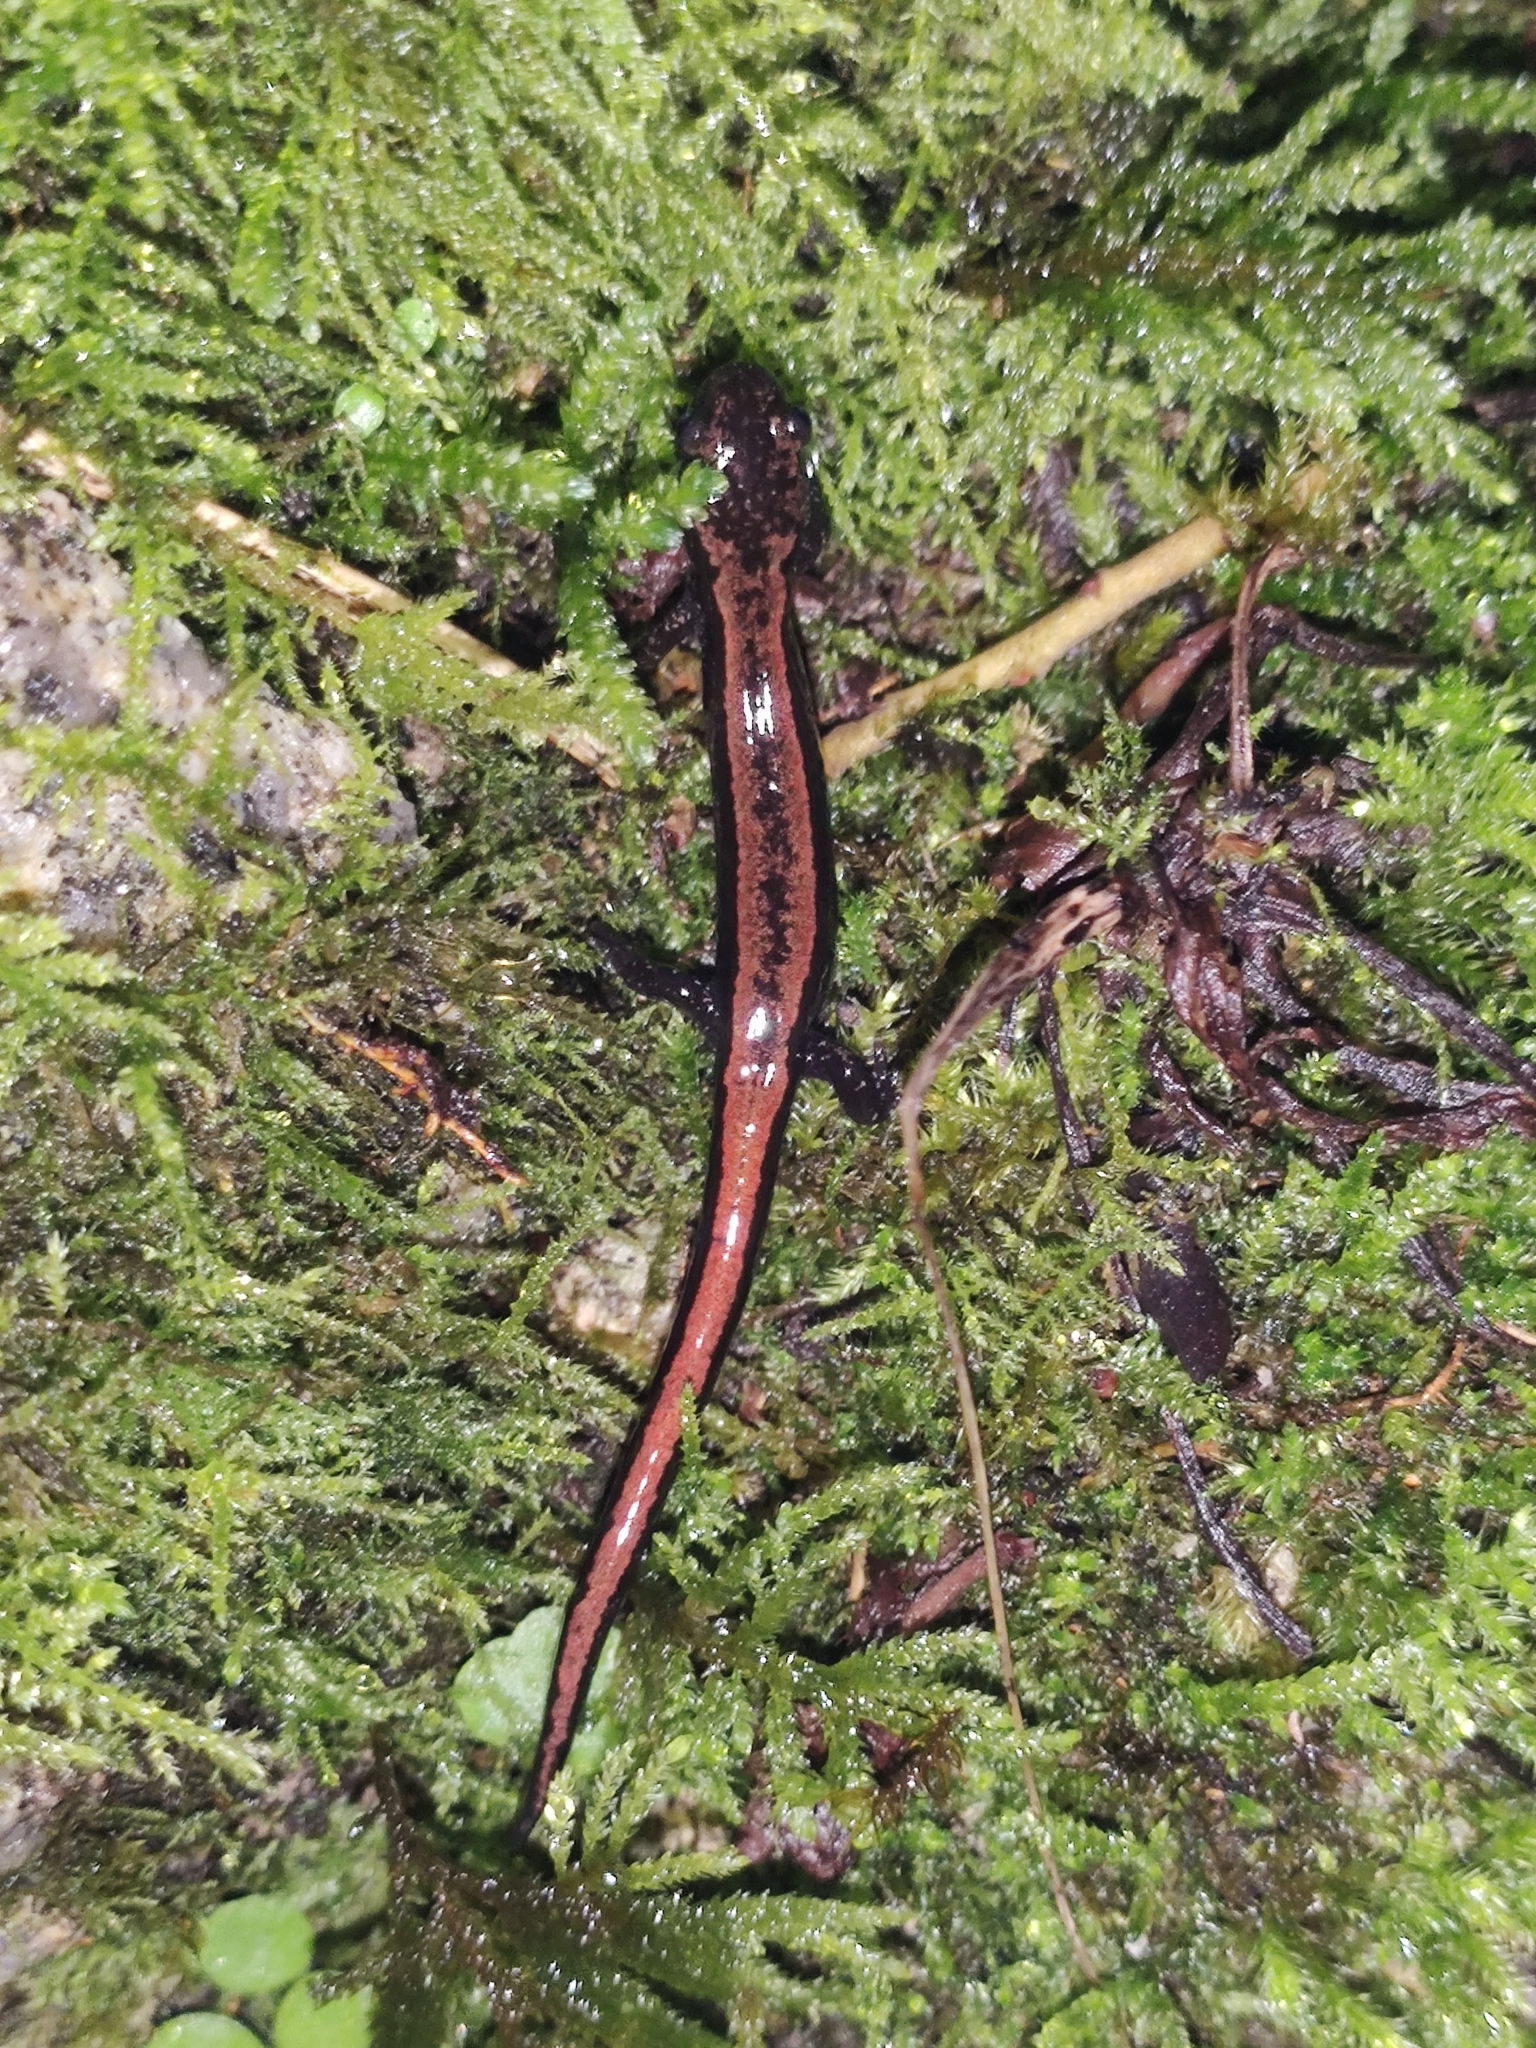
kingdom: Animalia
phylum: Chordata
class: Amphibia
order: Caudata
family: Salamandridae
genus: Chioglossa
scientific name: Chioglossa lusitanica
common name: Gold-striped salamander
